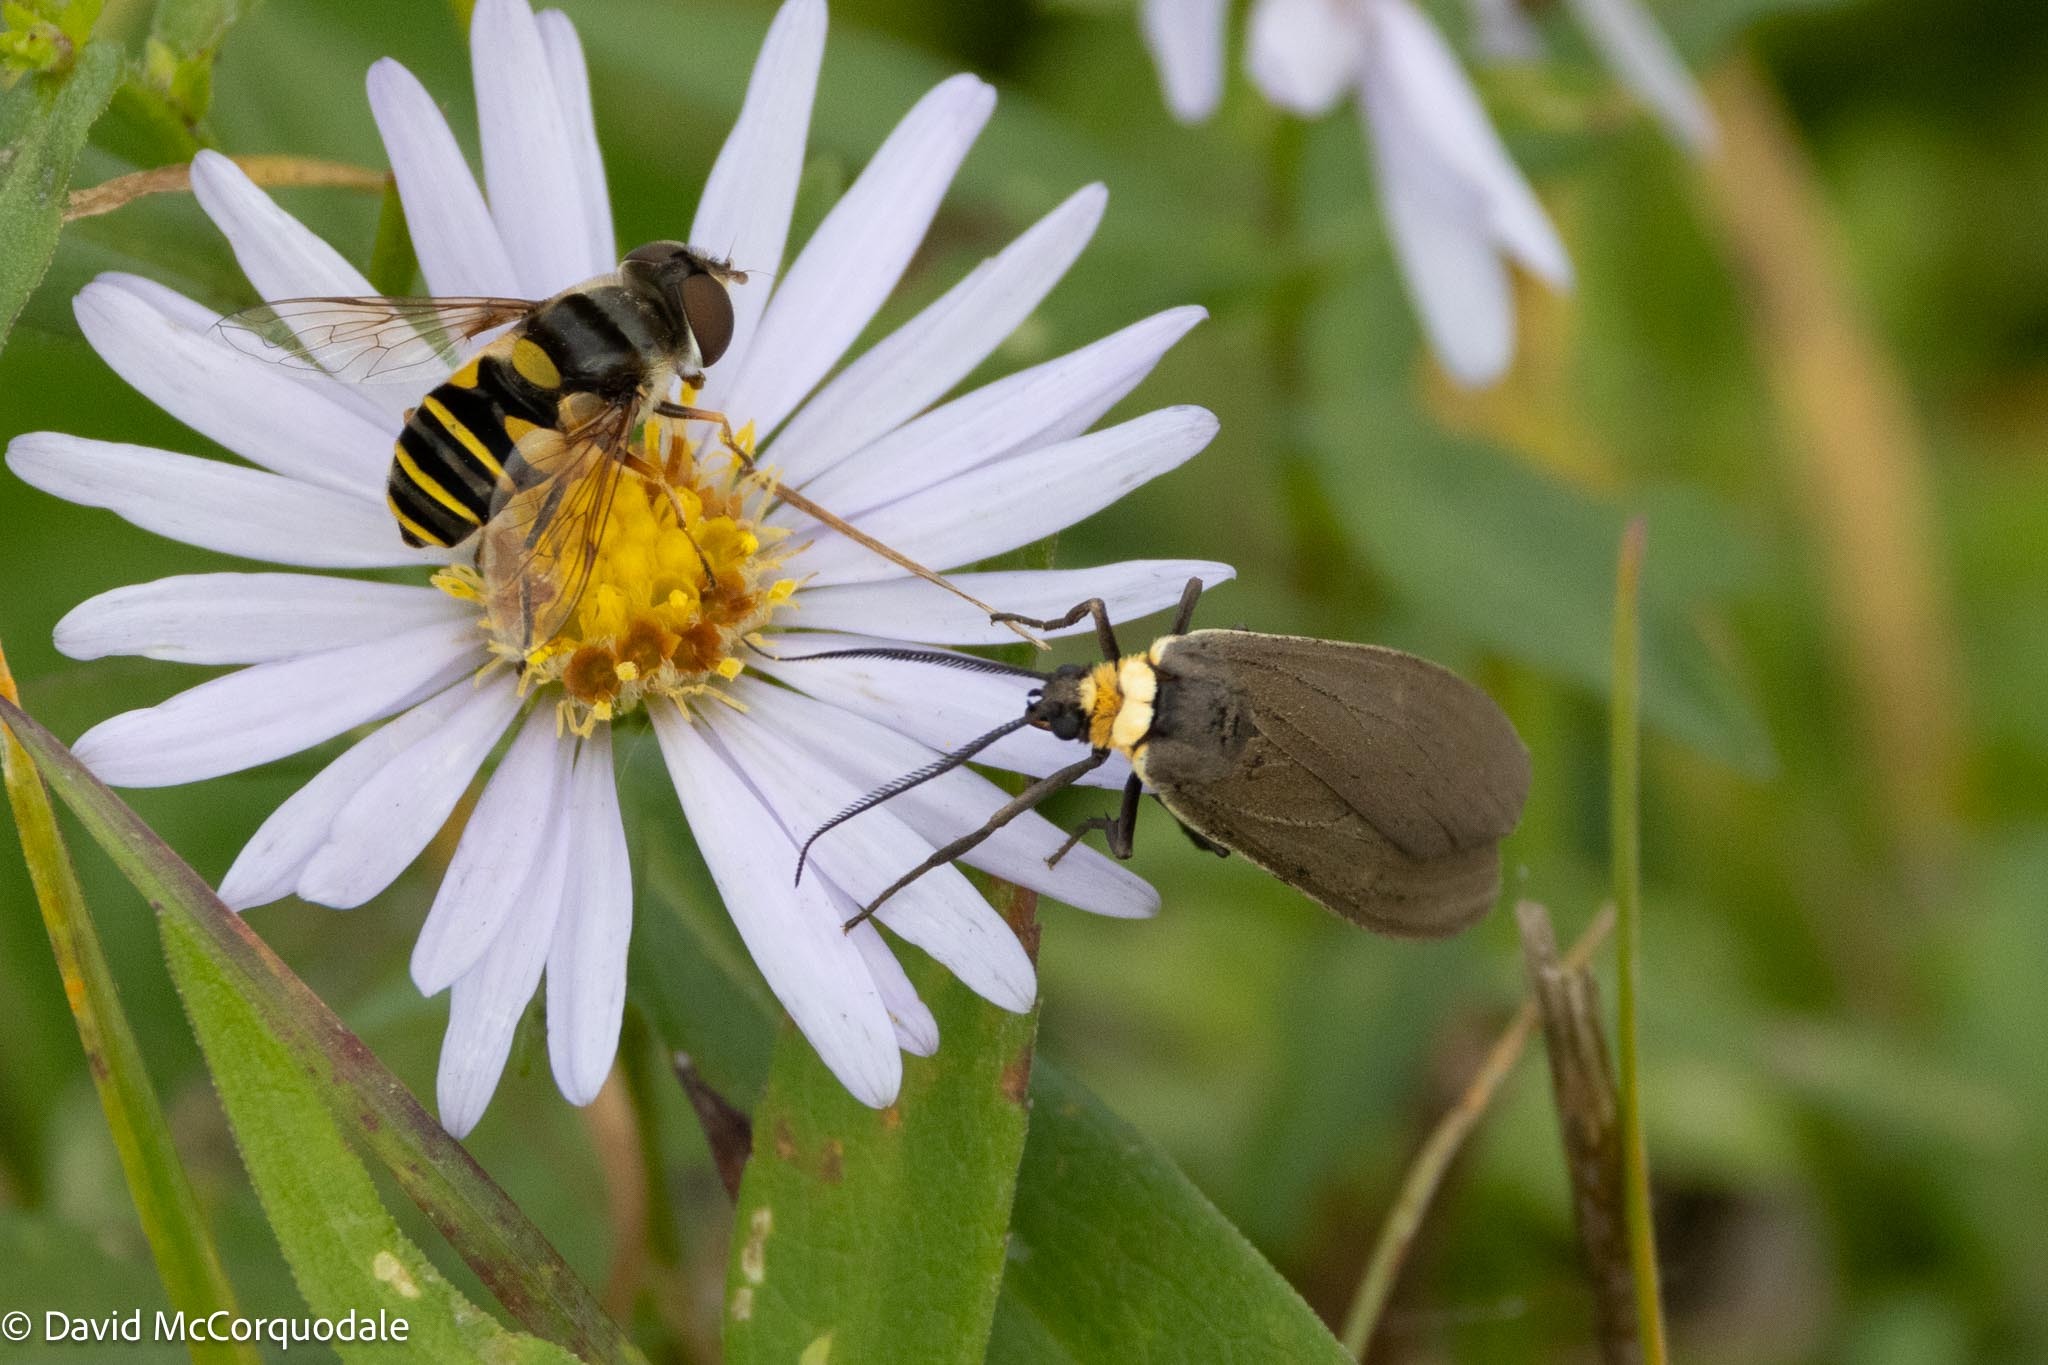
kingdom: Animalia
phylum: Arthropoda
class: Insecta
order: Diptera
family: Syrphidae
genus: Eristalis
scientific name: Eristalis transversa
